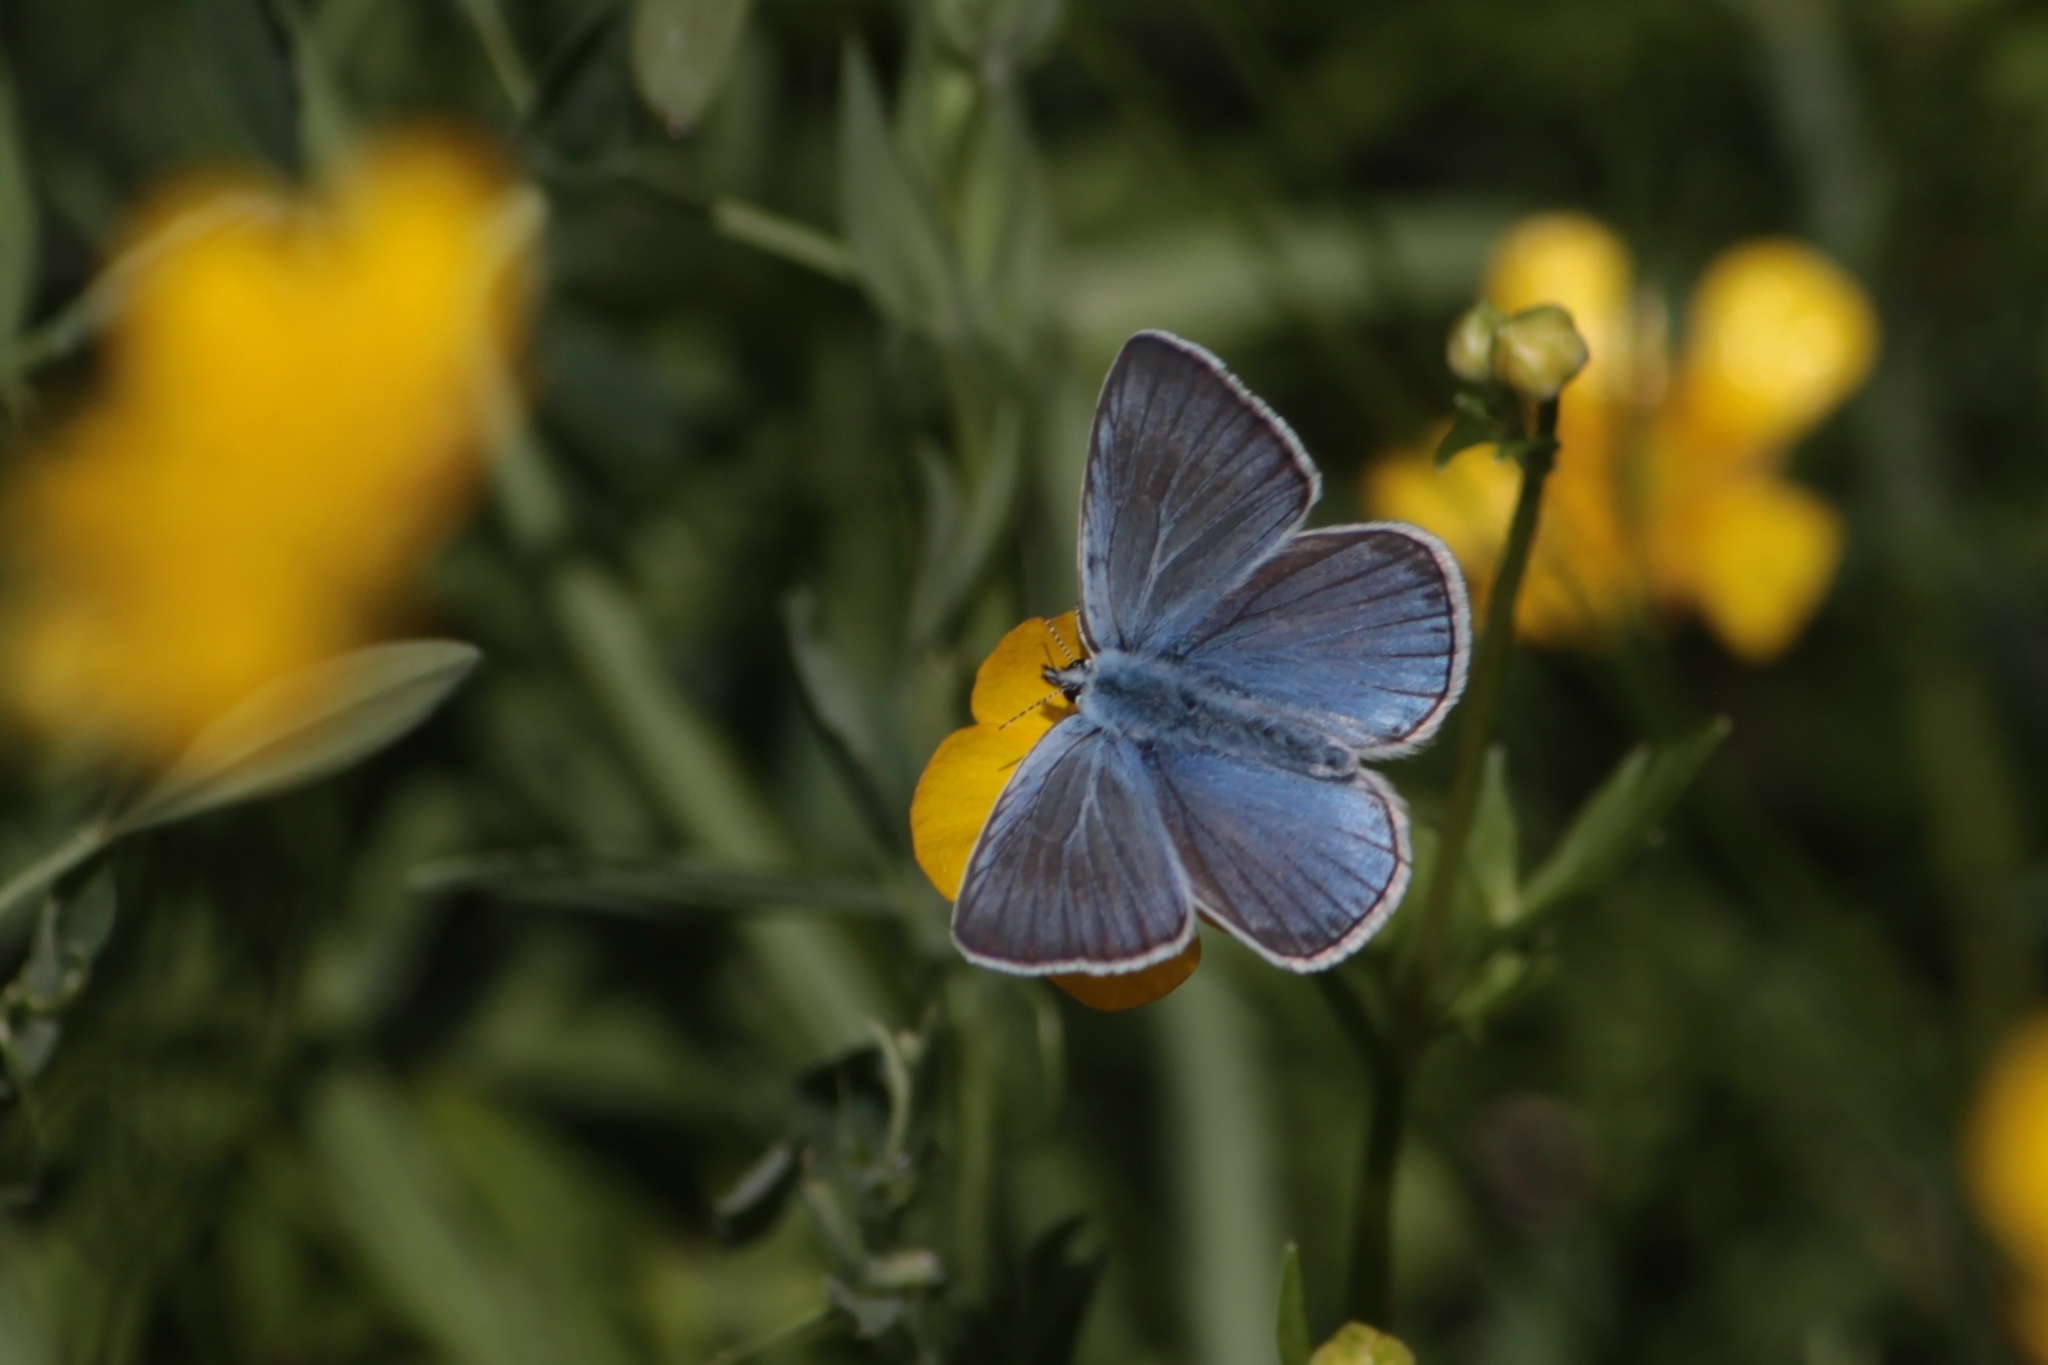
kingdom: Animalia
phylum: Arthropoda
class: Insecta
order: Lepidoptera
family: Lycaenidae
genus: Plebejus
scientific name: Plebejus amanda
